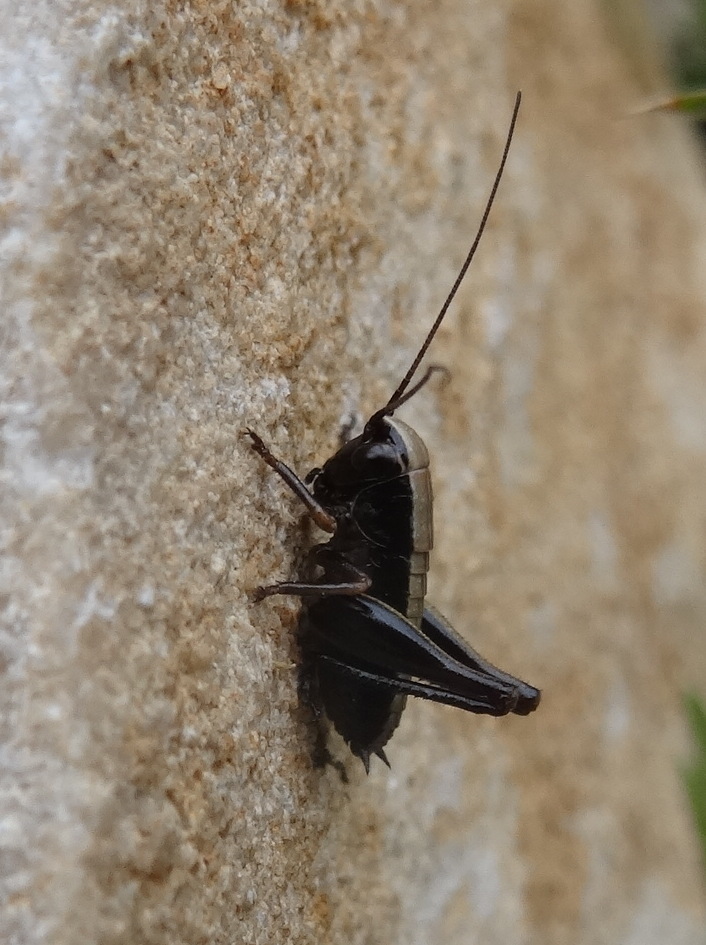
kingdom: Animalia
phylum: Arthropoda
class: Insecta
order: Orthoptera
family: Tettigoniidae
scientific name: Tettigoniidae
